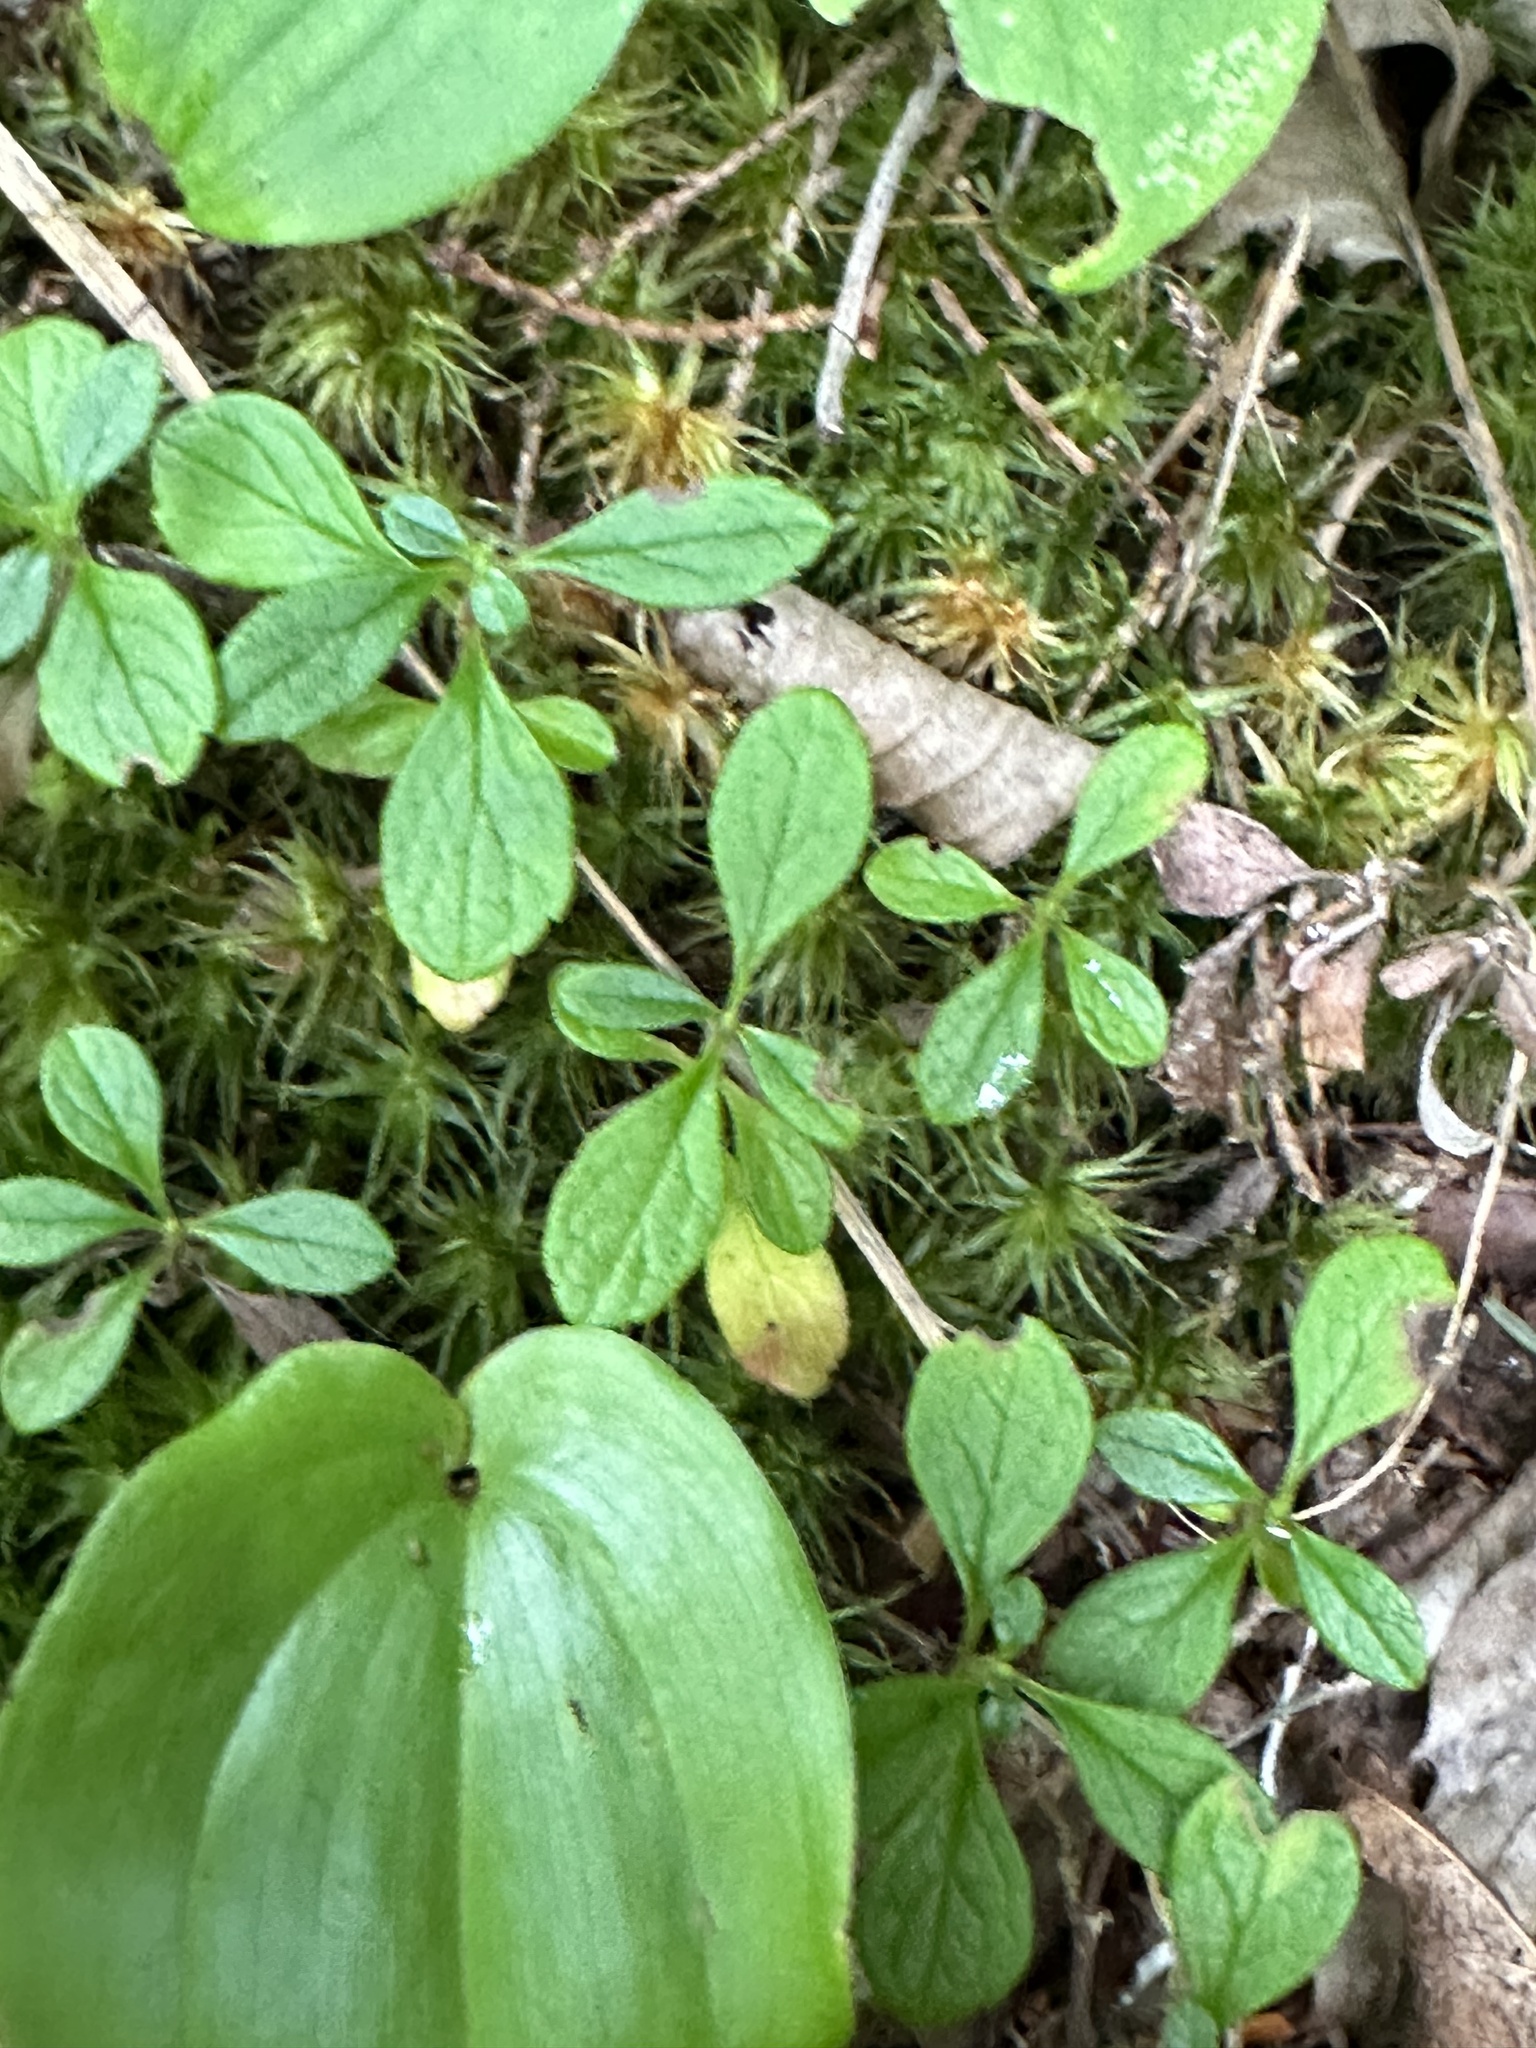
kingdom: Plantae
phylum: Tracheophyta
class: Magnoliopsida
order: Dipsacales
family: Caprifoliaceae
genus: Linnaea
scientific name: Linnaea borealis
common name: Twinflower
